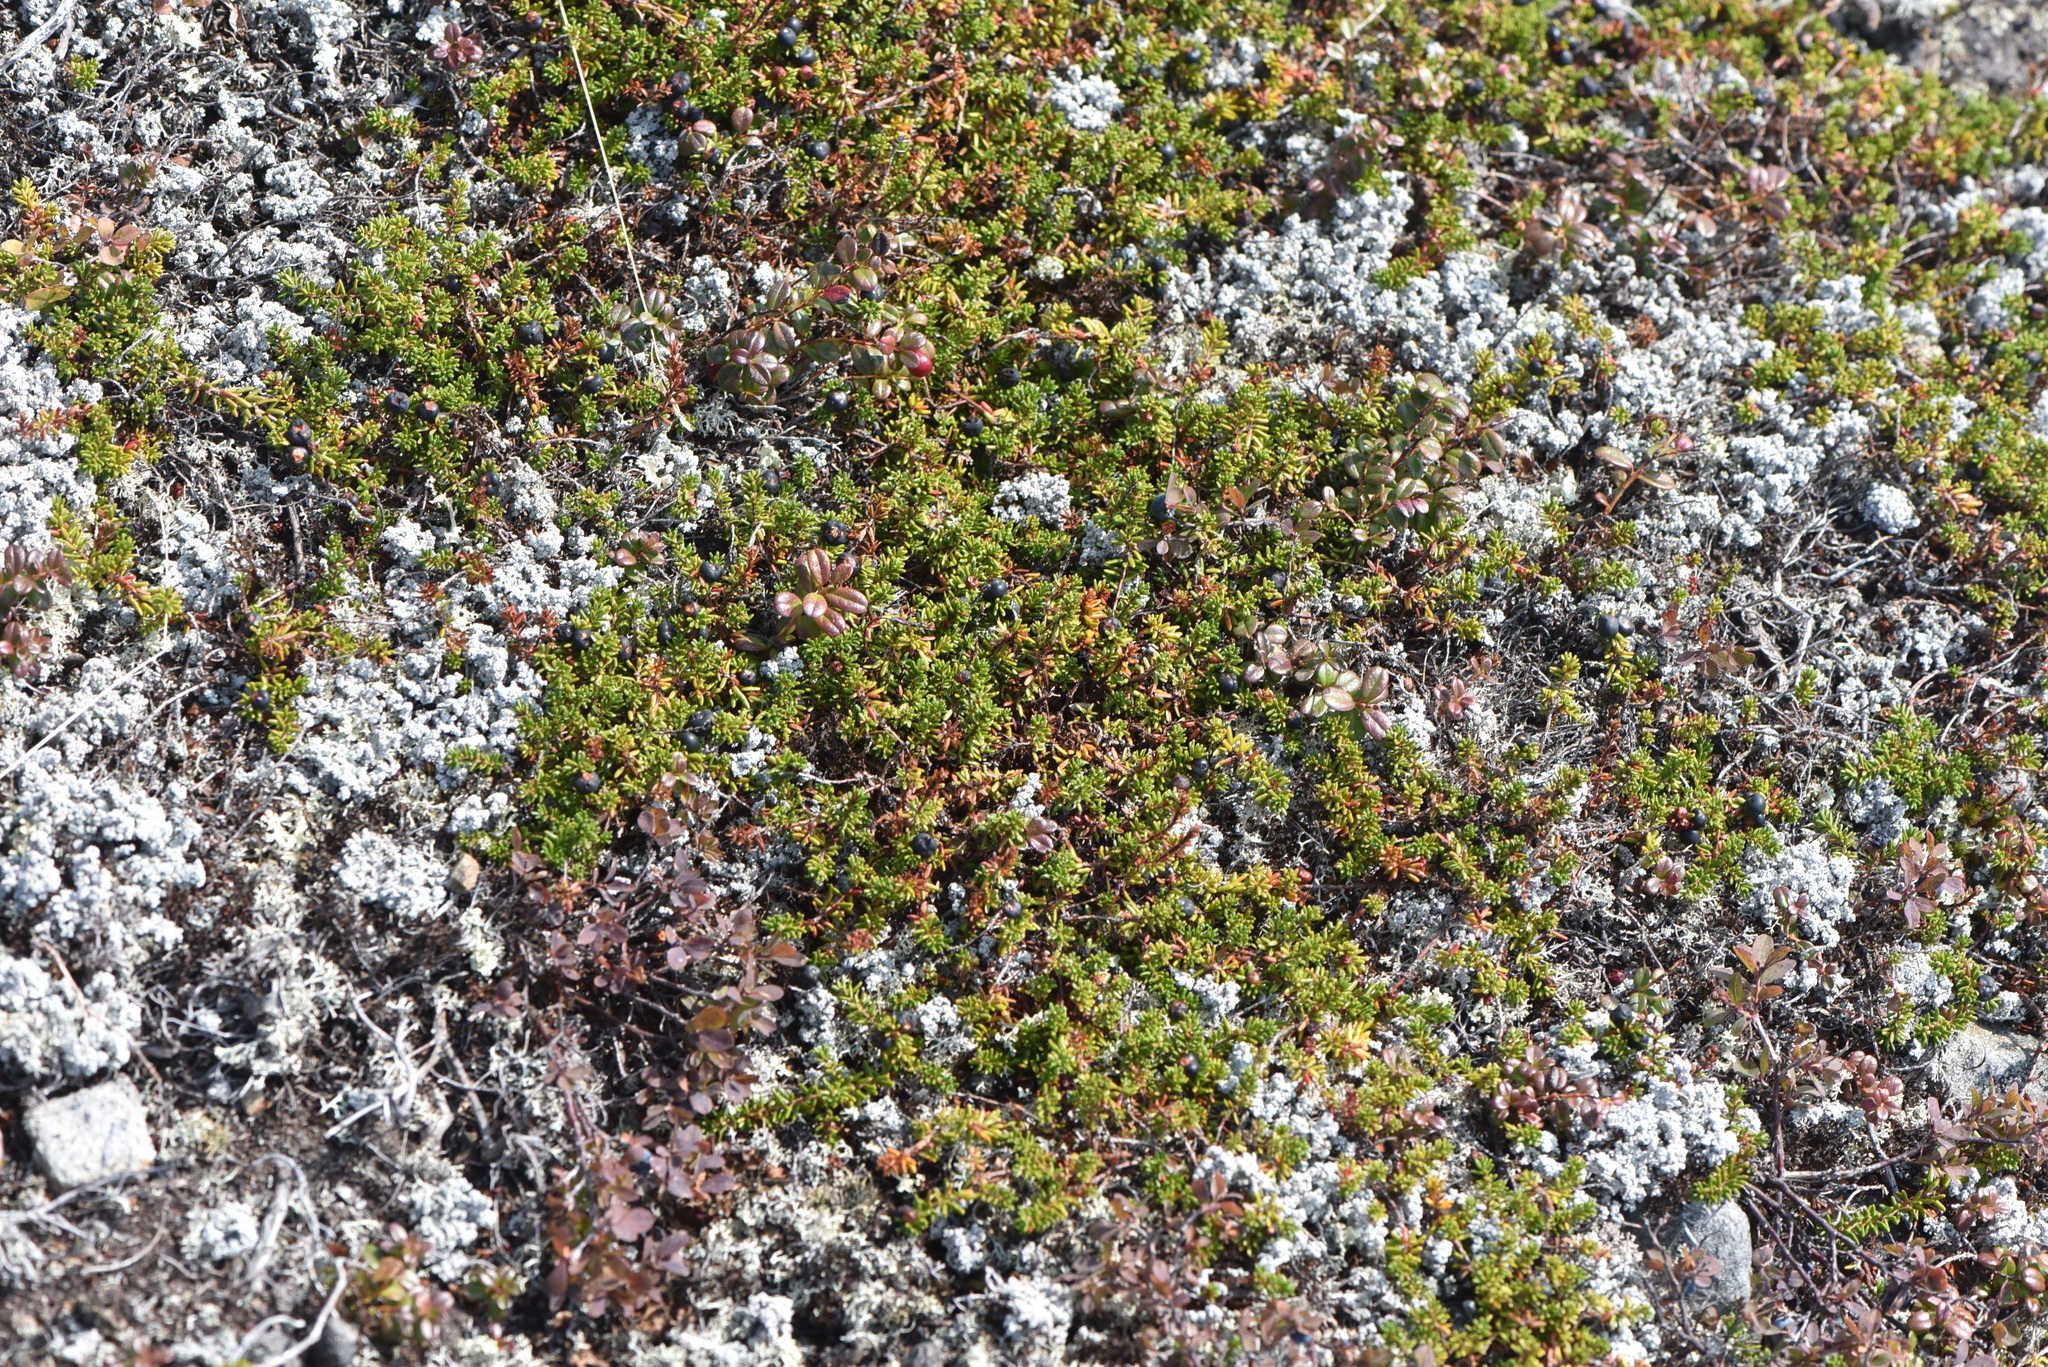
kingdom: Plantae
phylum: Tracheophyta
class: Magnoliopsida
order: Ericales
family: Ericaceae
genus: Empetrum
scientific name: Empetrum nigrum
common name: Black crowberry
